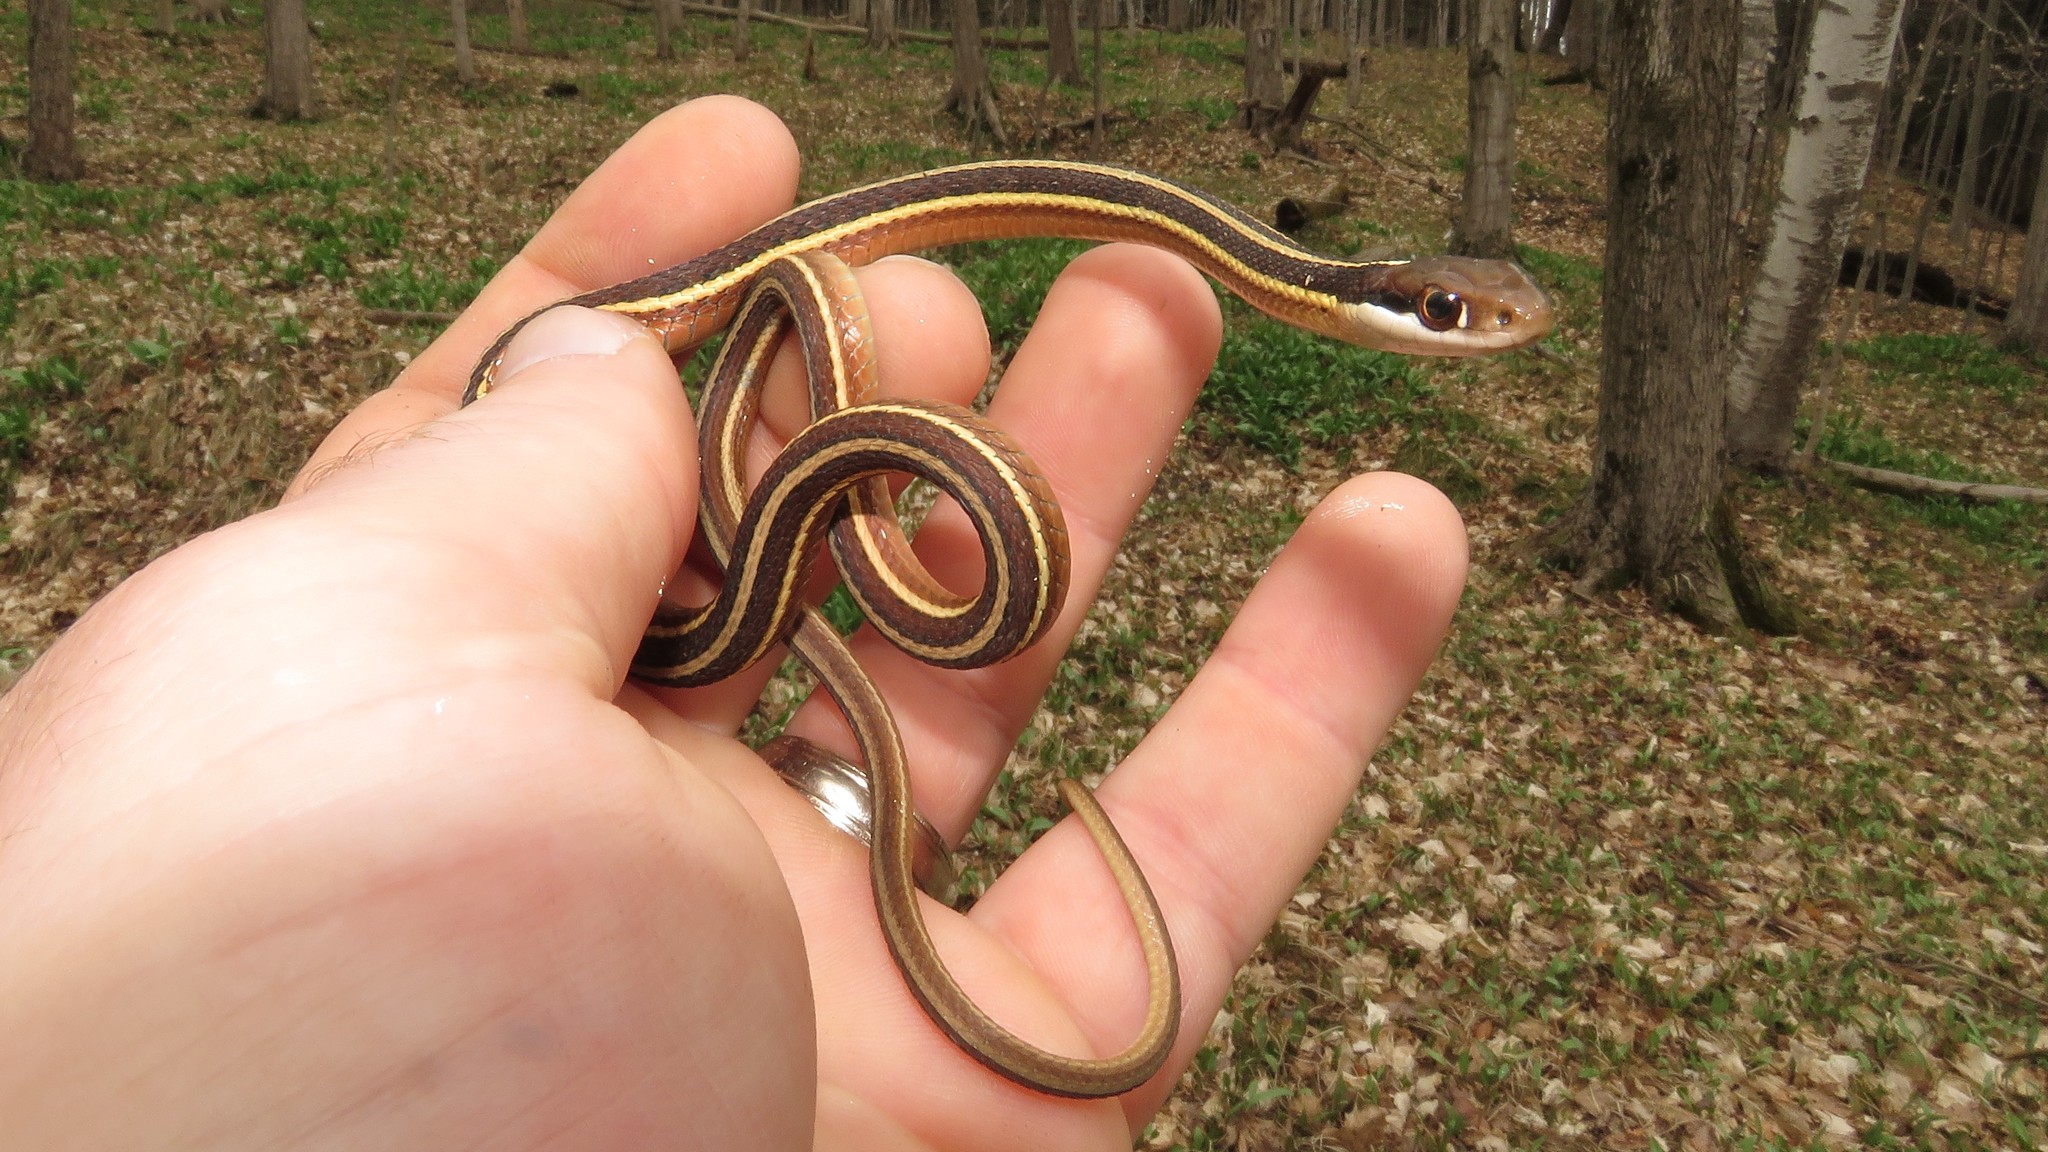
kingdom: Animalia
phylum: Chordata
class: Squamata
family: Colubridae
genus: Thamnophis
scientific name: Thamnophis saurita
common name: Eastern ribbonsnake
